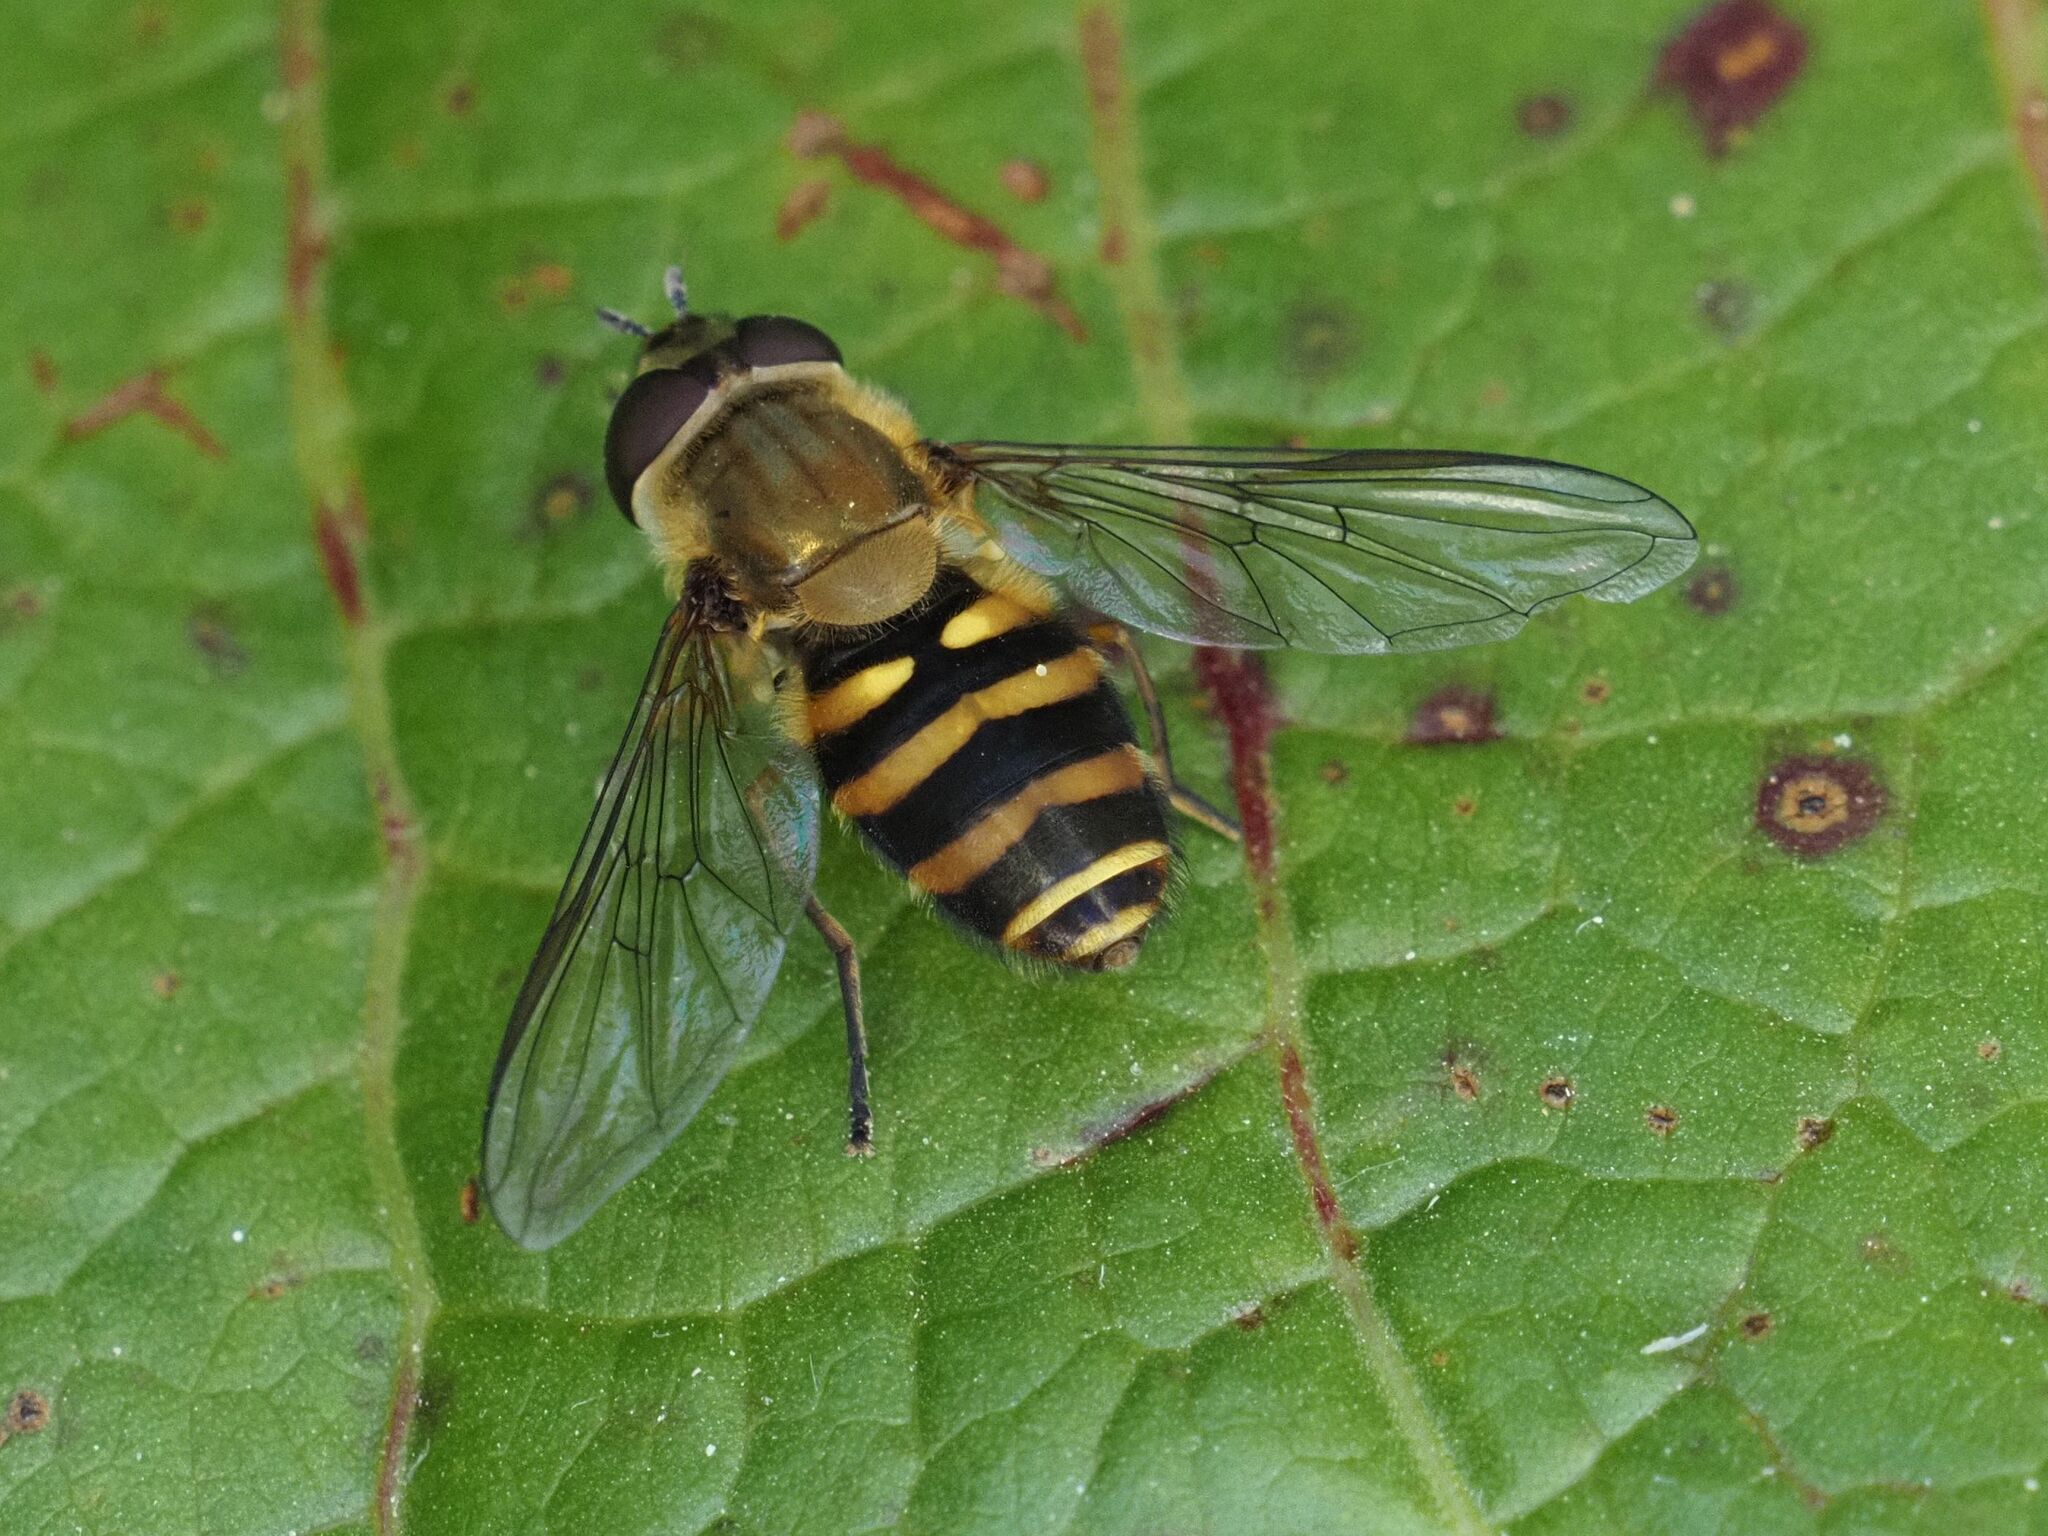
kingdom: Animalia
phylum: Arthropoda
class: Insecta
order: Diptera
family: Syrphidae
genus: Syrphus
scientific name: Syrphus
